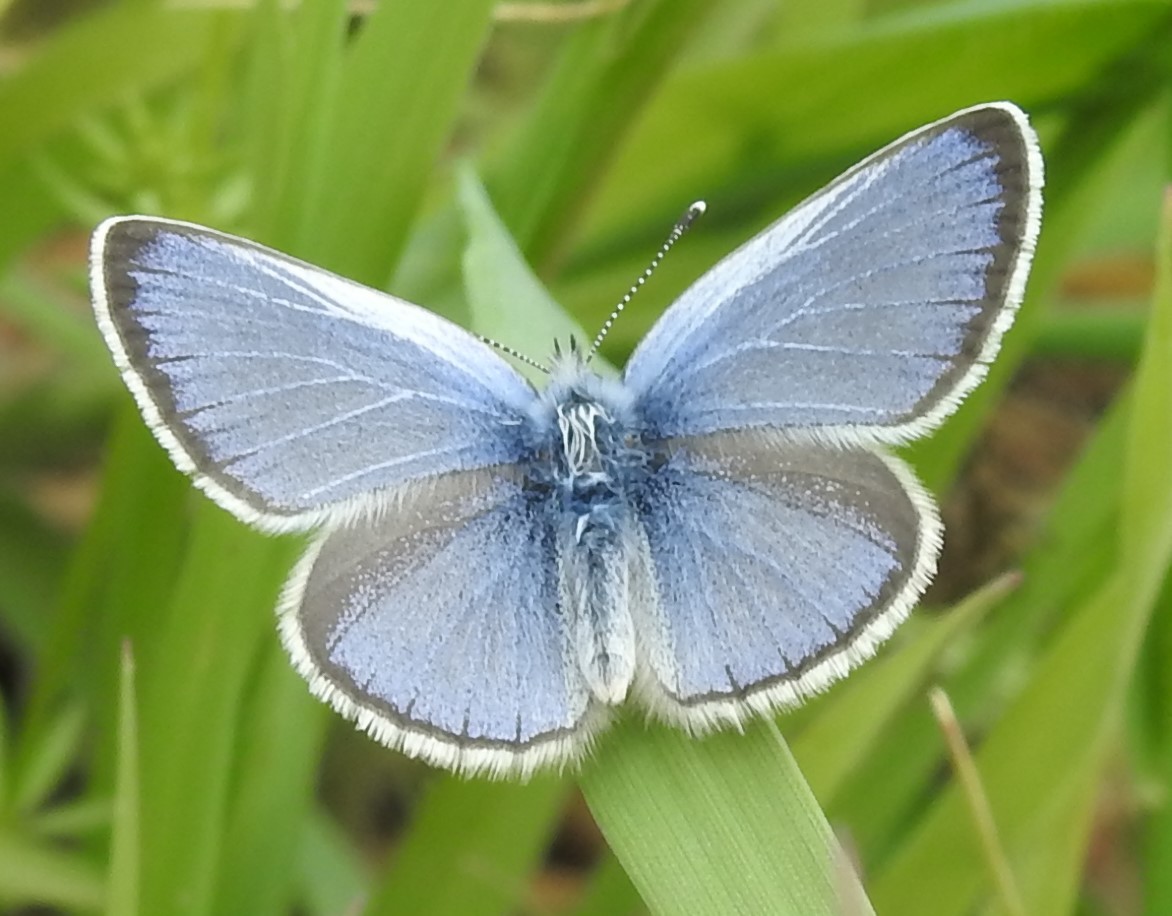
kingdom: Animalia
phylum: Arthropoda
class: Insecta
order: Lepidoptera
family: Lycaenidae
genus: Glaucopsyche
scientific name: Glaucopsyche alexis
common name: Green-underside blue
